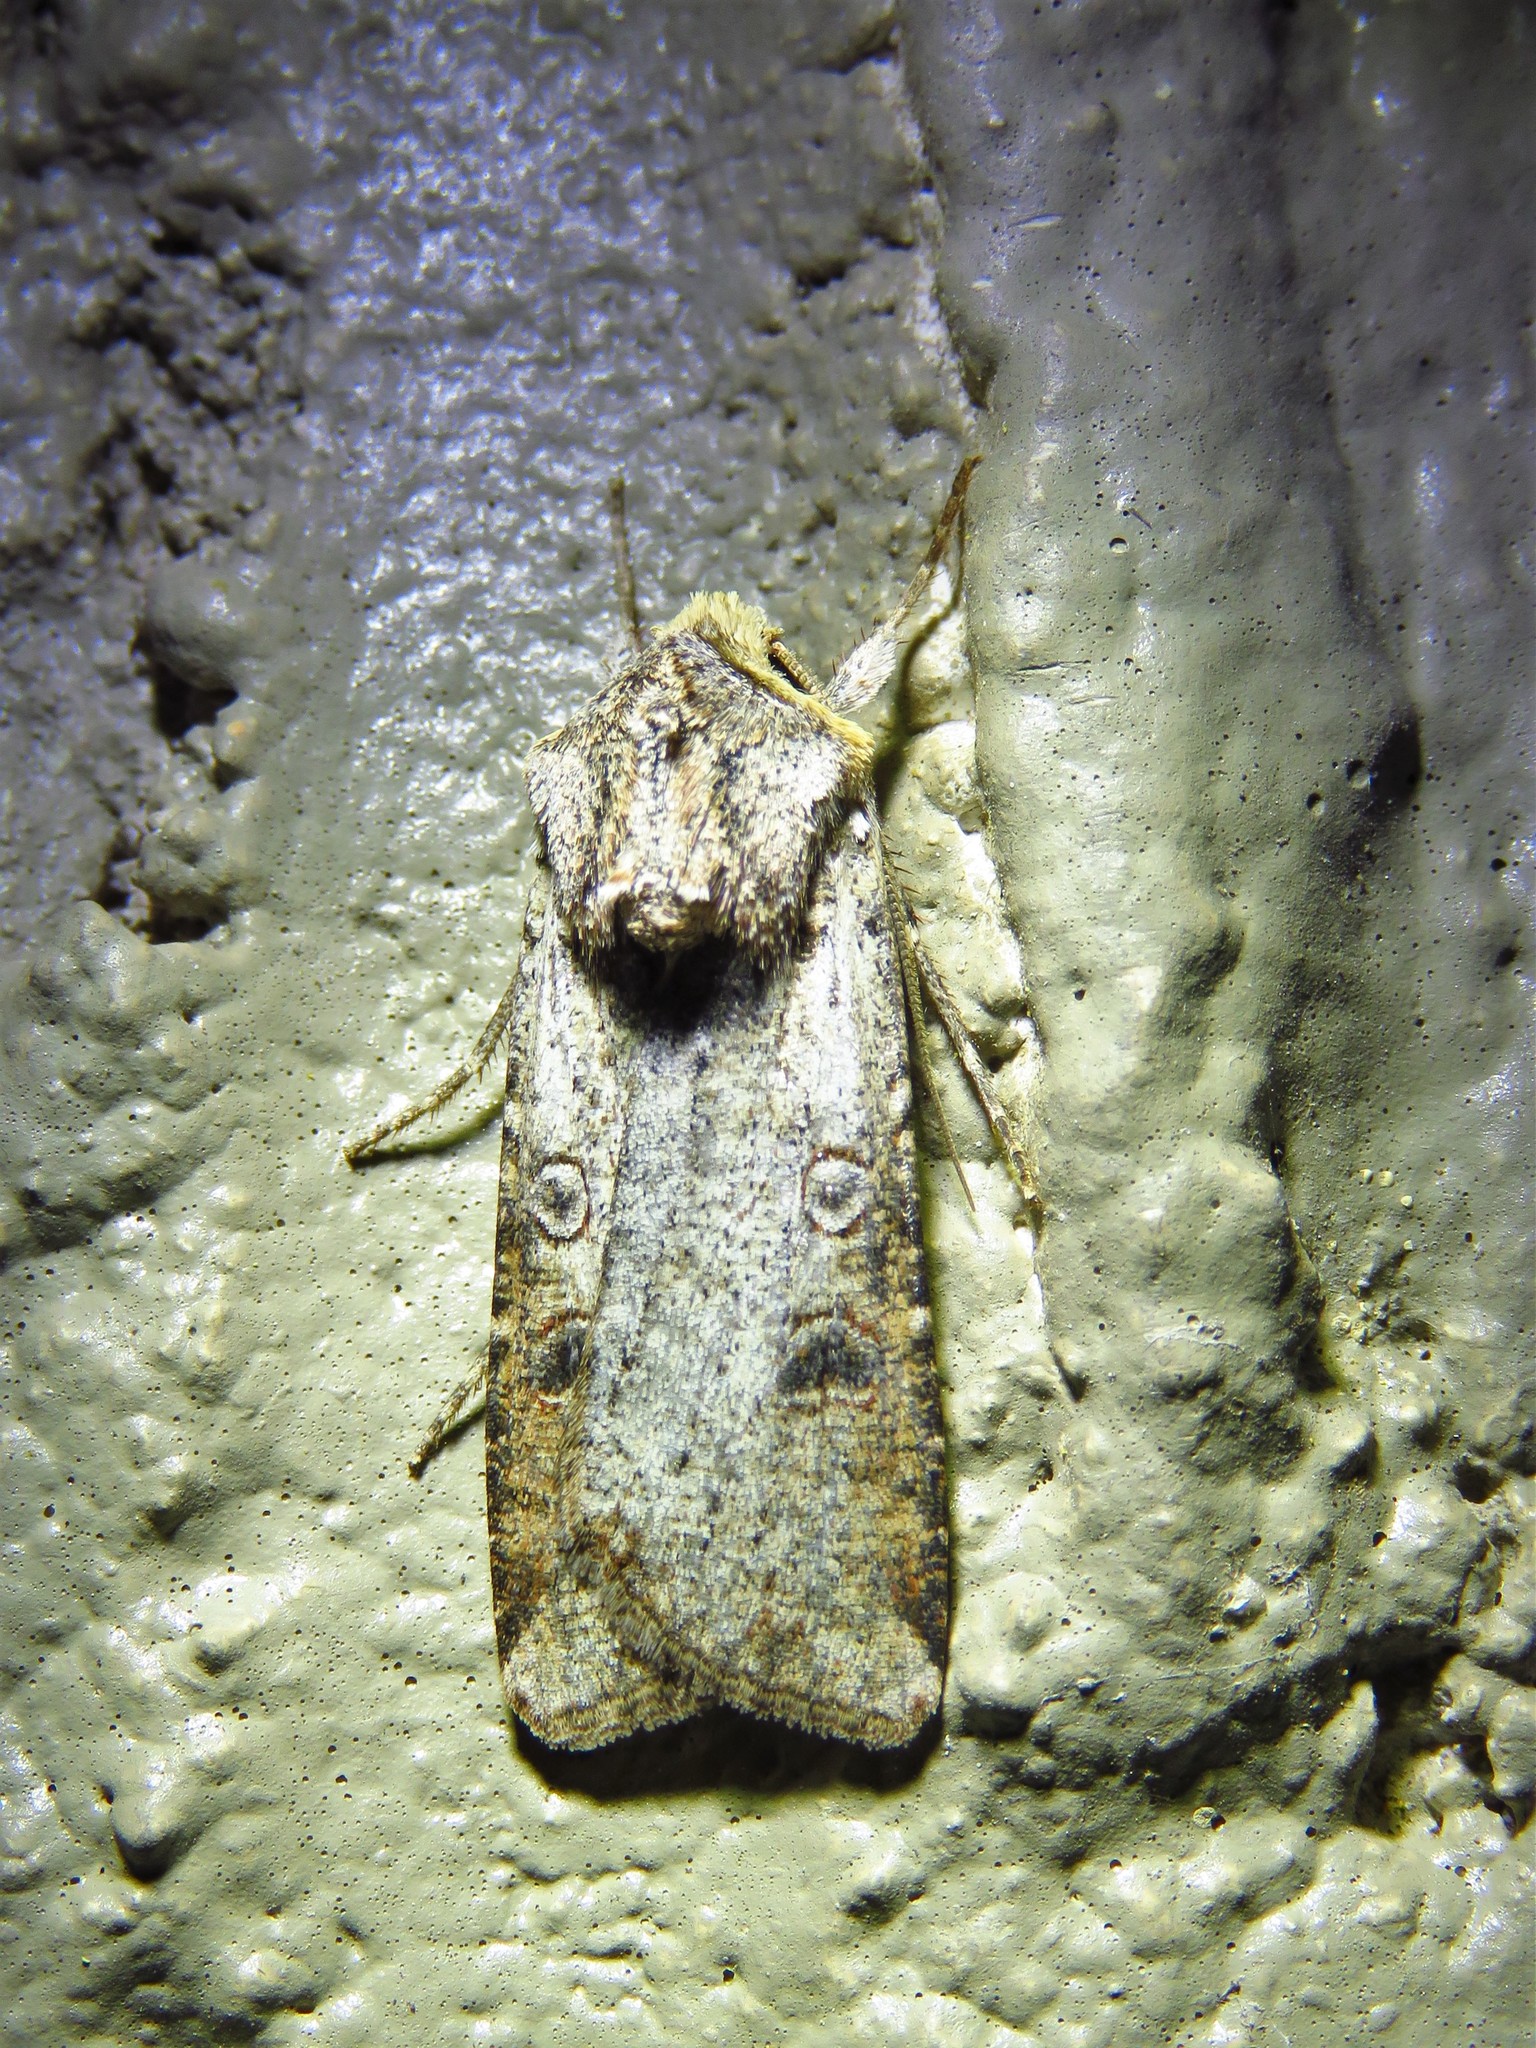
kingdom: Animalia
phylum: Arthropoda
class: Insecta
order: Lepidoptera
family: Noctuidae
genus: Anicla
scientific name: Anicla infecta
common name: Green cutworm
